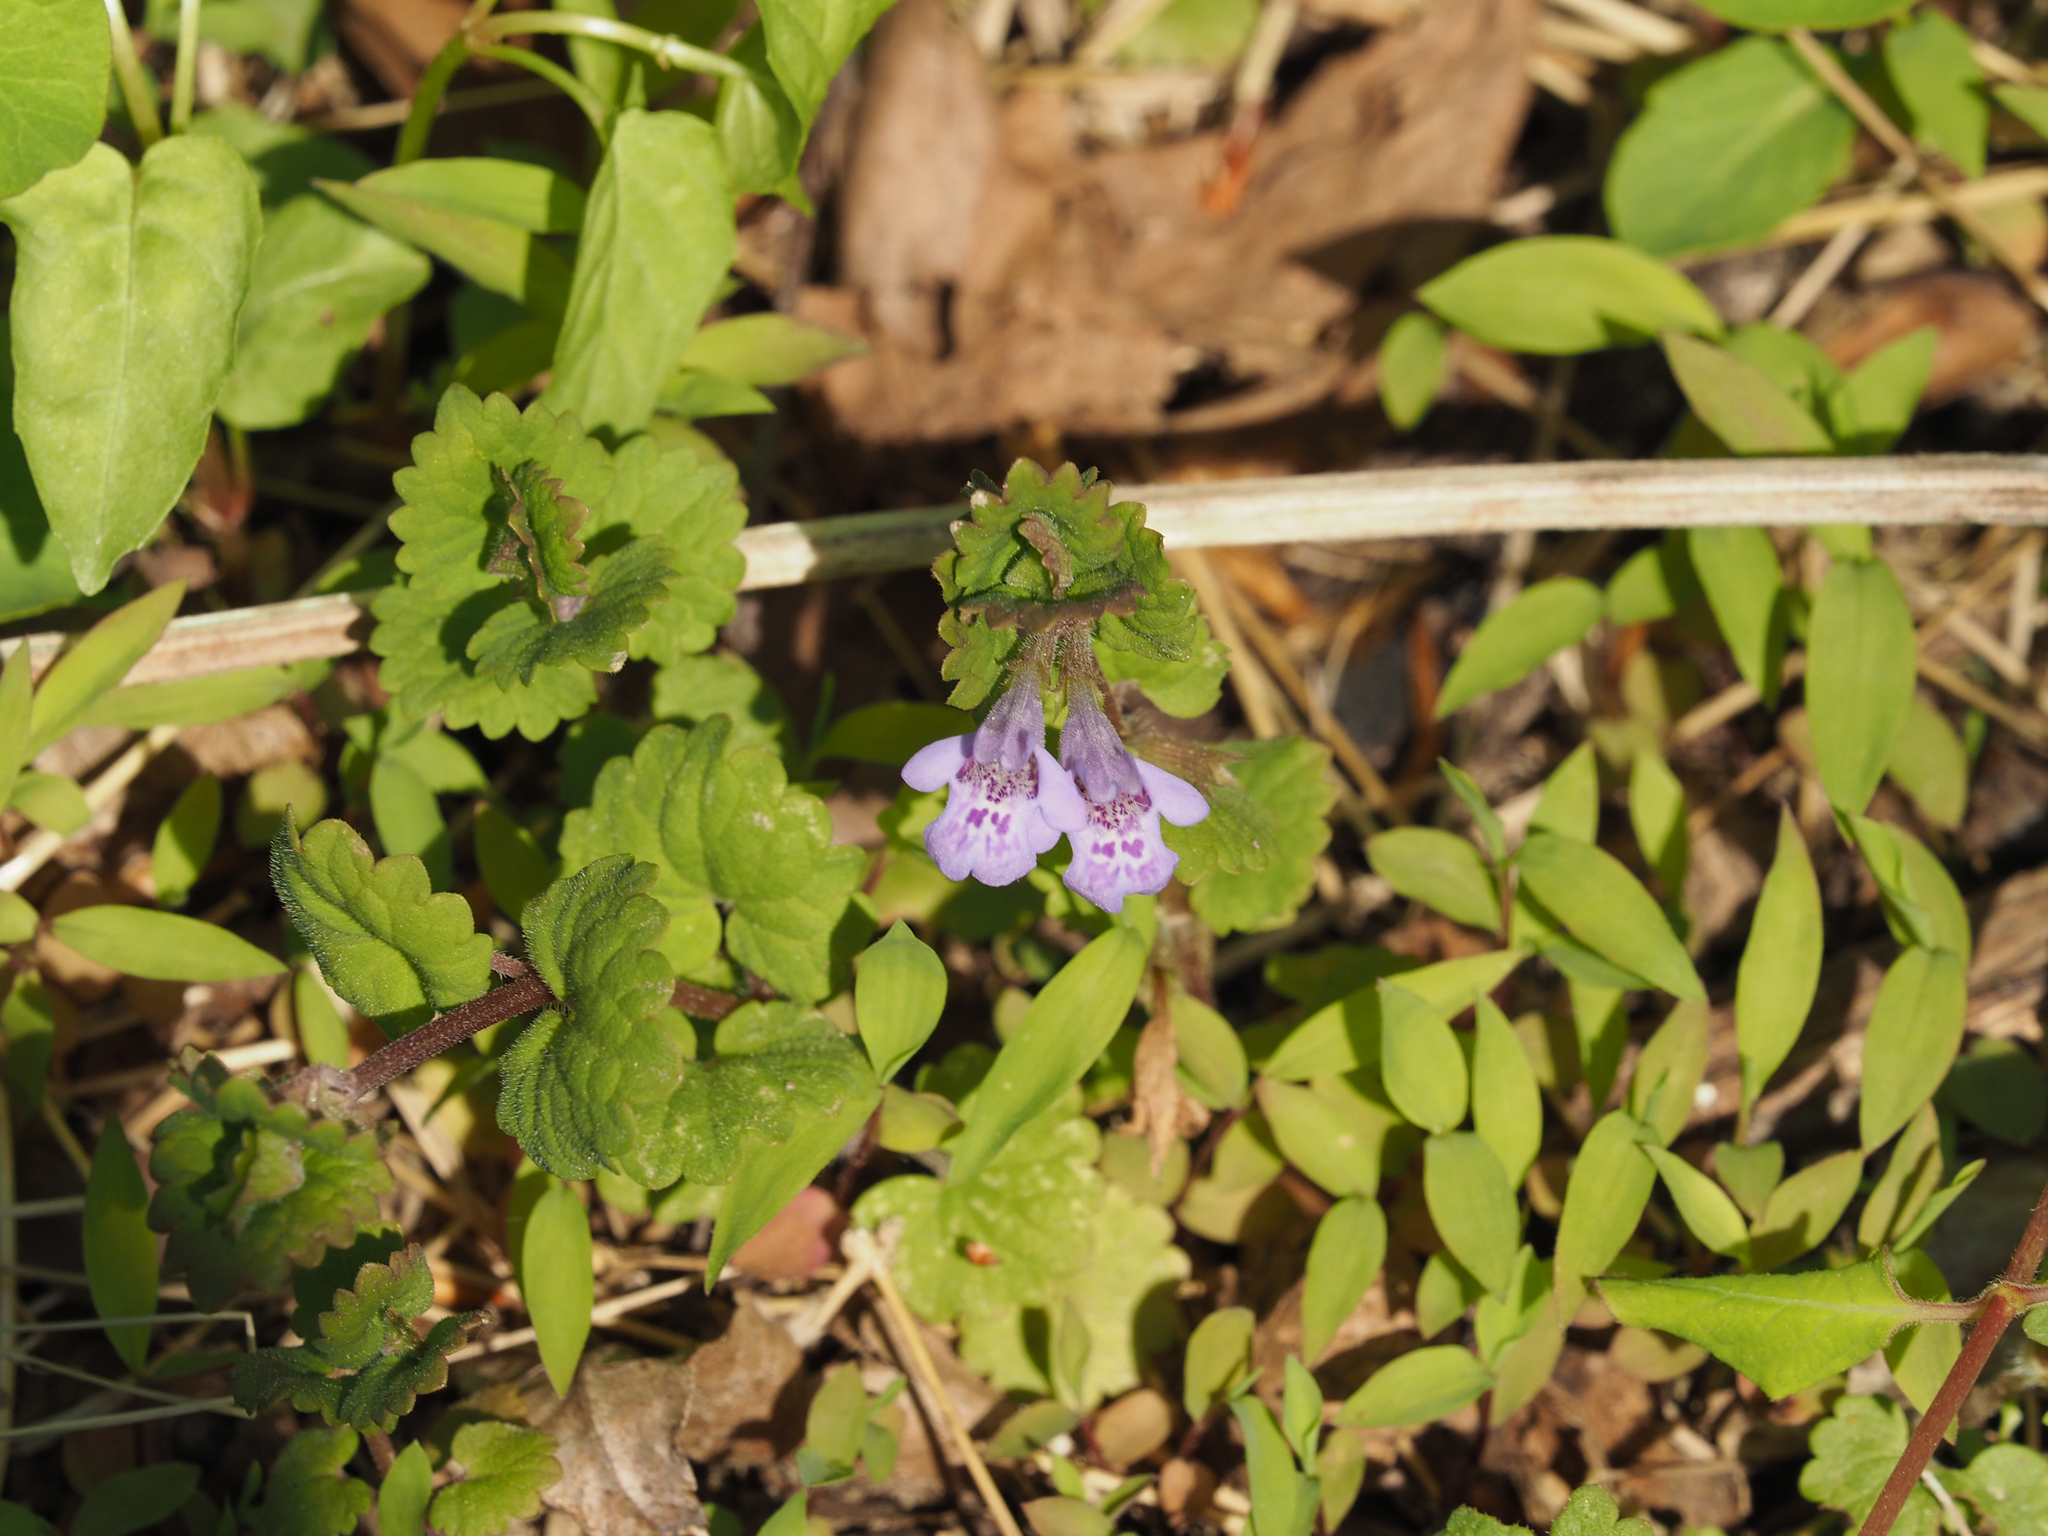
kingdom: Plantae
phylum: Tracheophyta
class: Magnoliopsida
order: Lamiales
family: Lamiaceae
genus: Glechoma
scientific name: Glechoma hederacea
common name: Ground ivy
